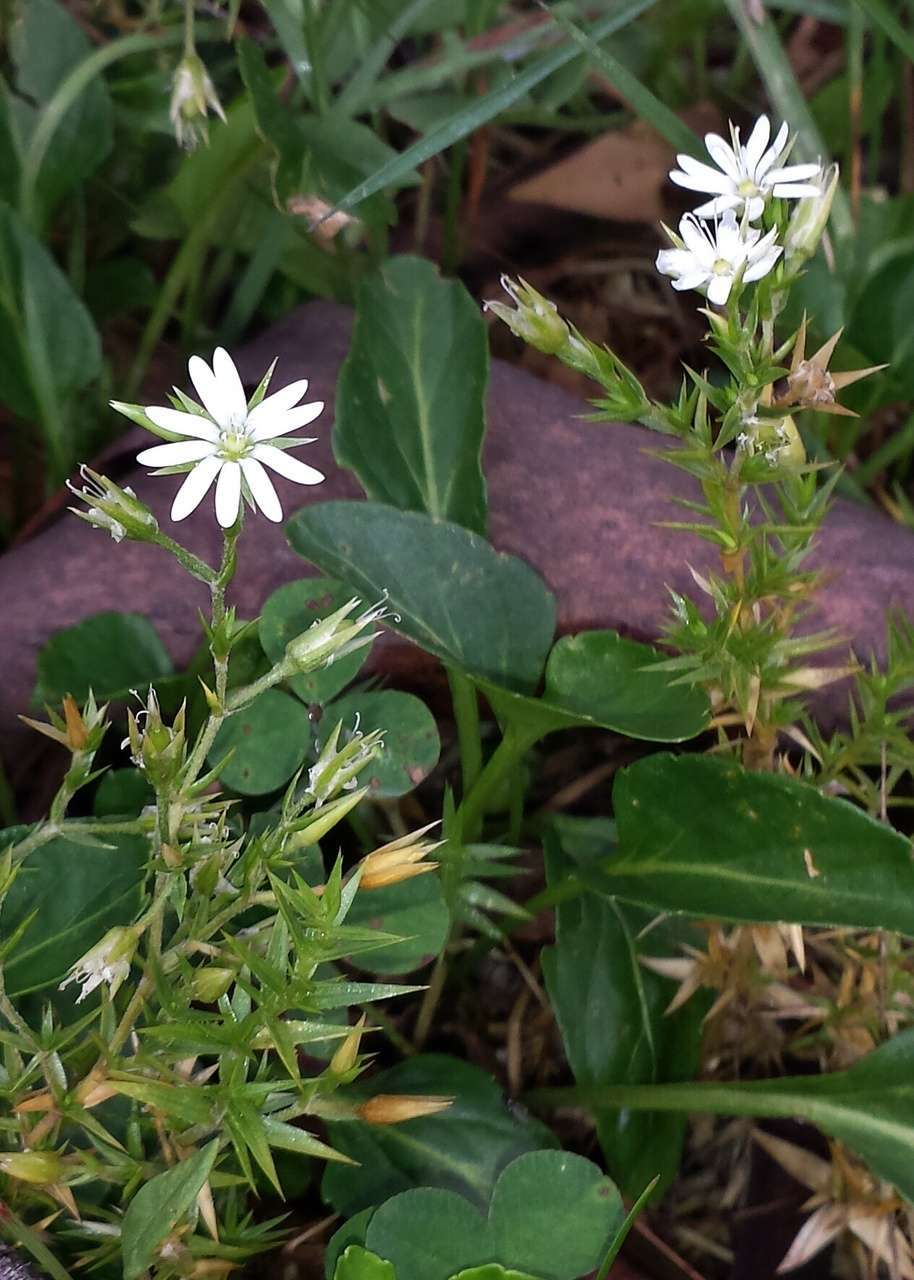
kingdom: Plantae
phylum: Tracheophyta
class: Magnoliopsida
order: Caryophyllales
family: Caryophyllaceae
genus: Stellaria
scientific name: Stellaria pungens
